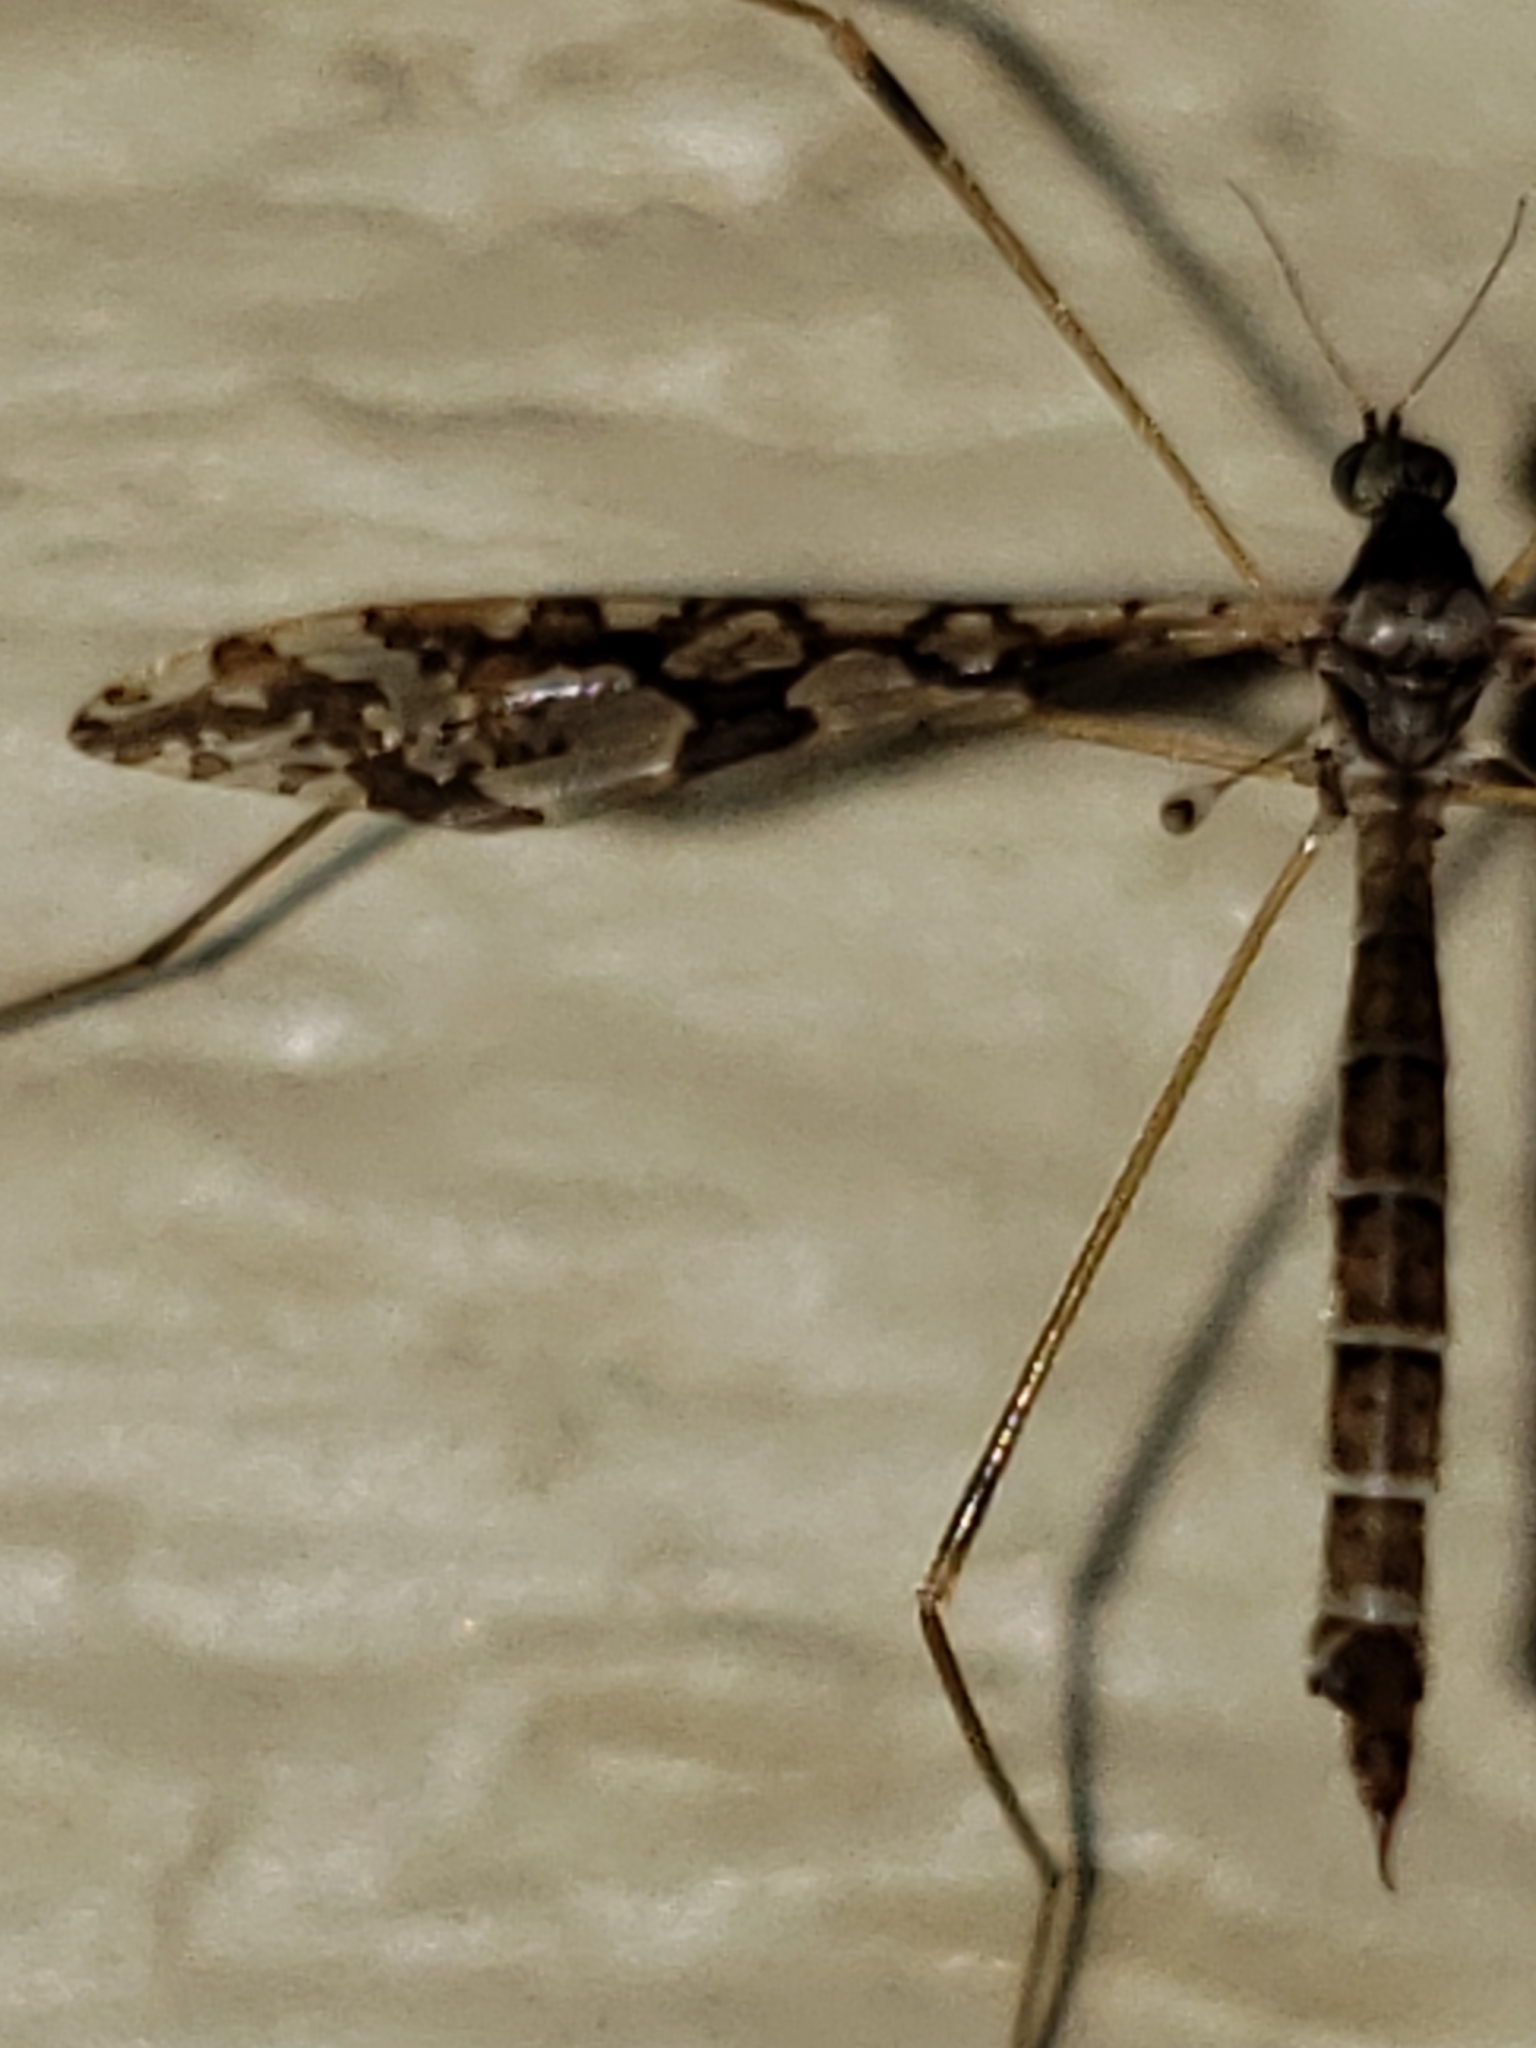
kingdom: Animalia
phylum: Arthropoda
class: Insecta
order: Diptera
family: Limoniidae
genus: Epiphragma
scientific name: Epiphragma solatrix
